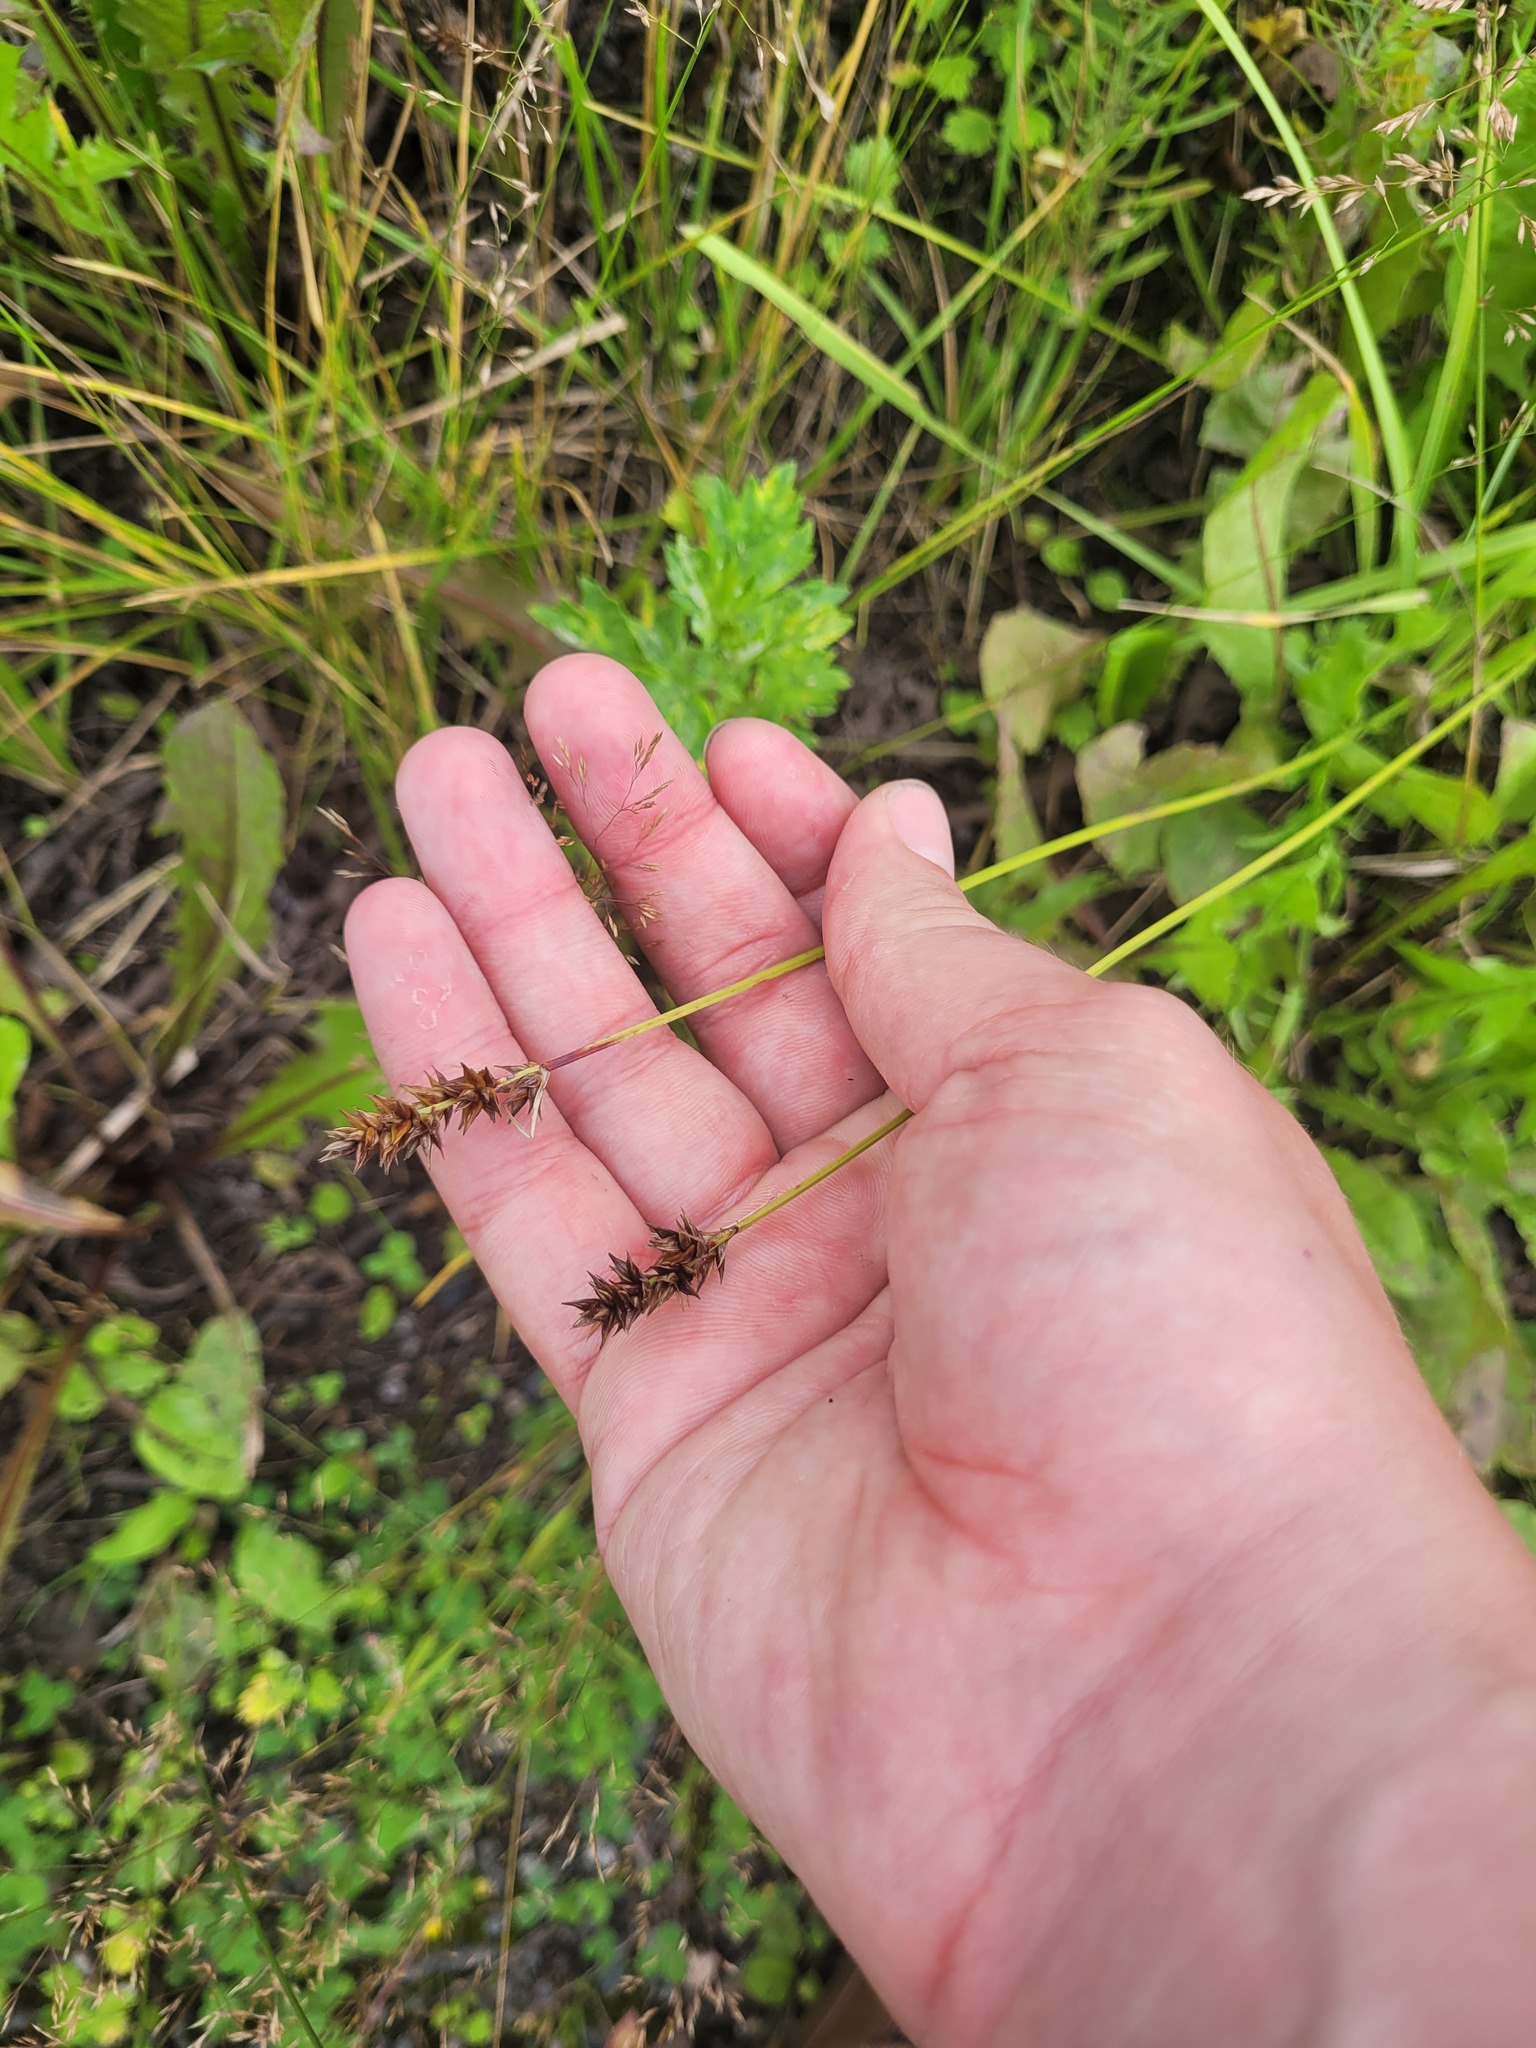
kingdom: Plantae
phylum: Tracheophyta
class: Liliopsida
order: Poales
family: Cyperaceae
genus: Carex
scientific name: Carex spicata
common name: Spiked sedge
